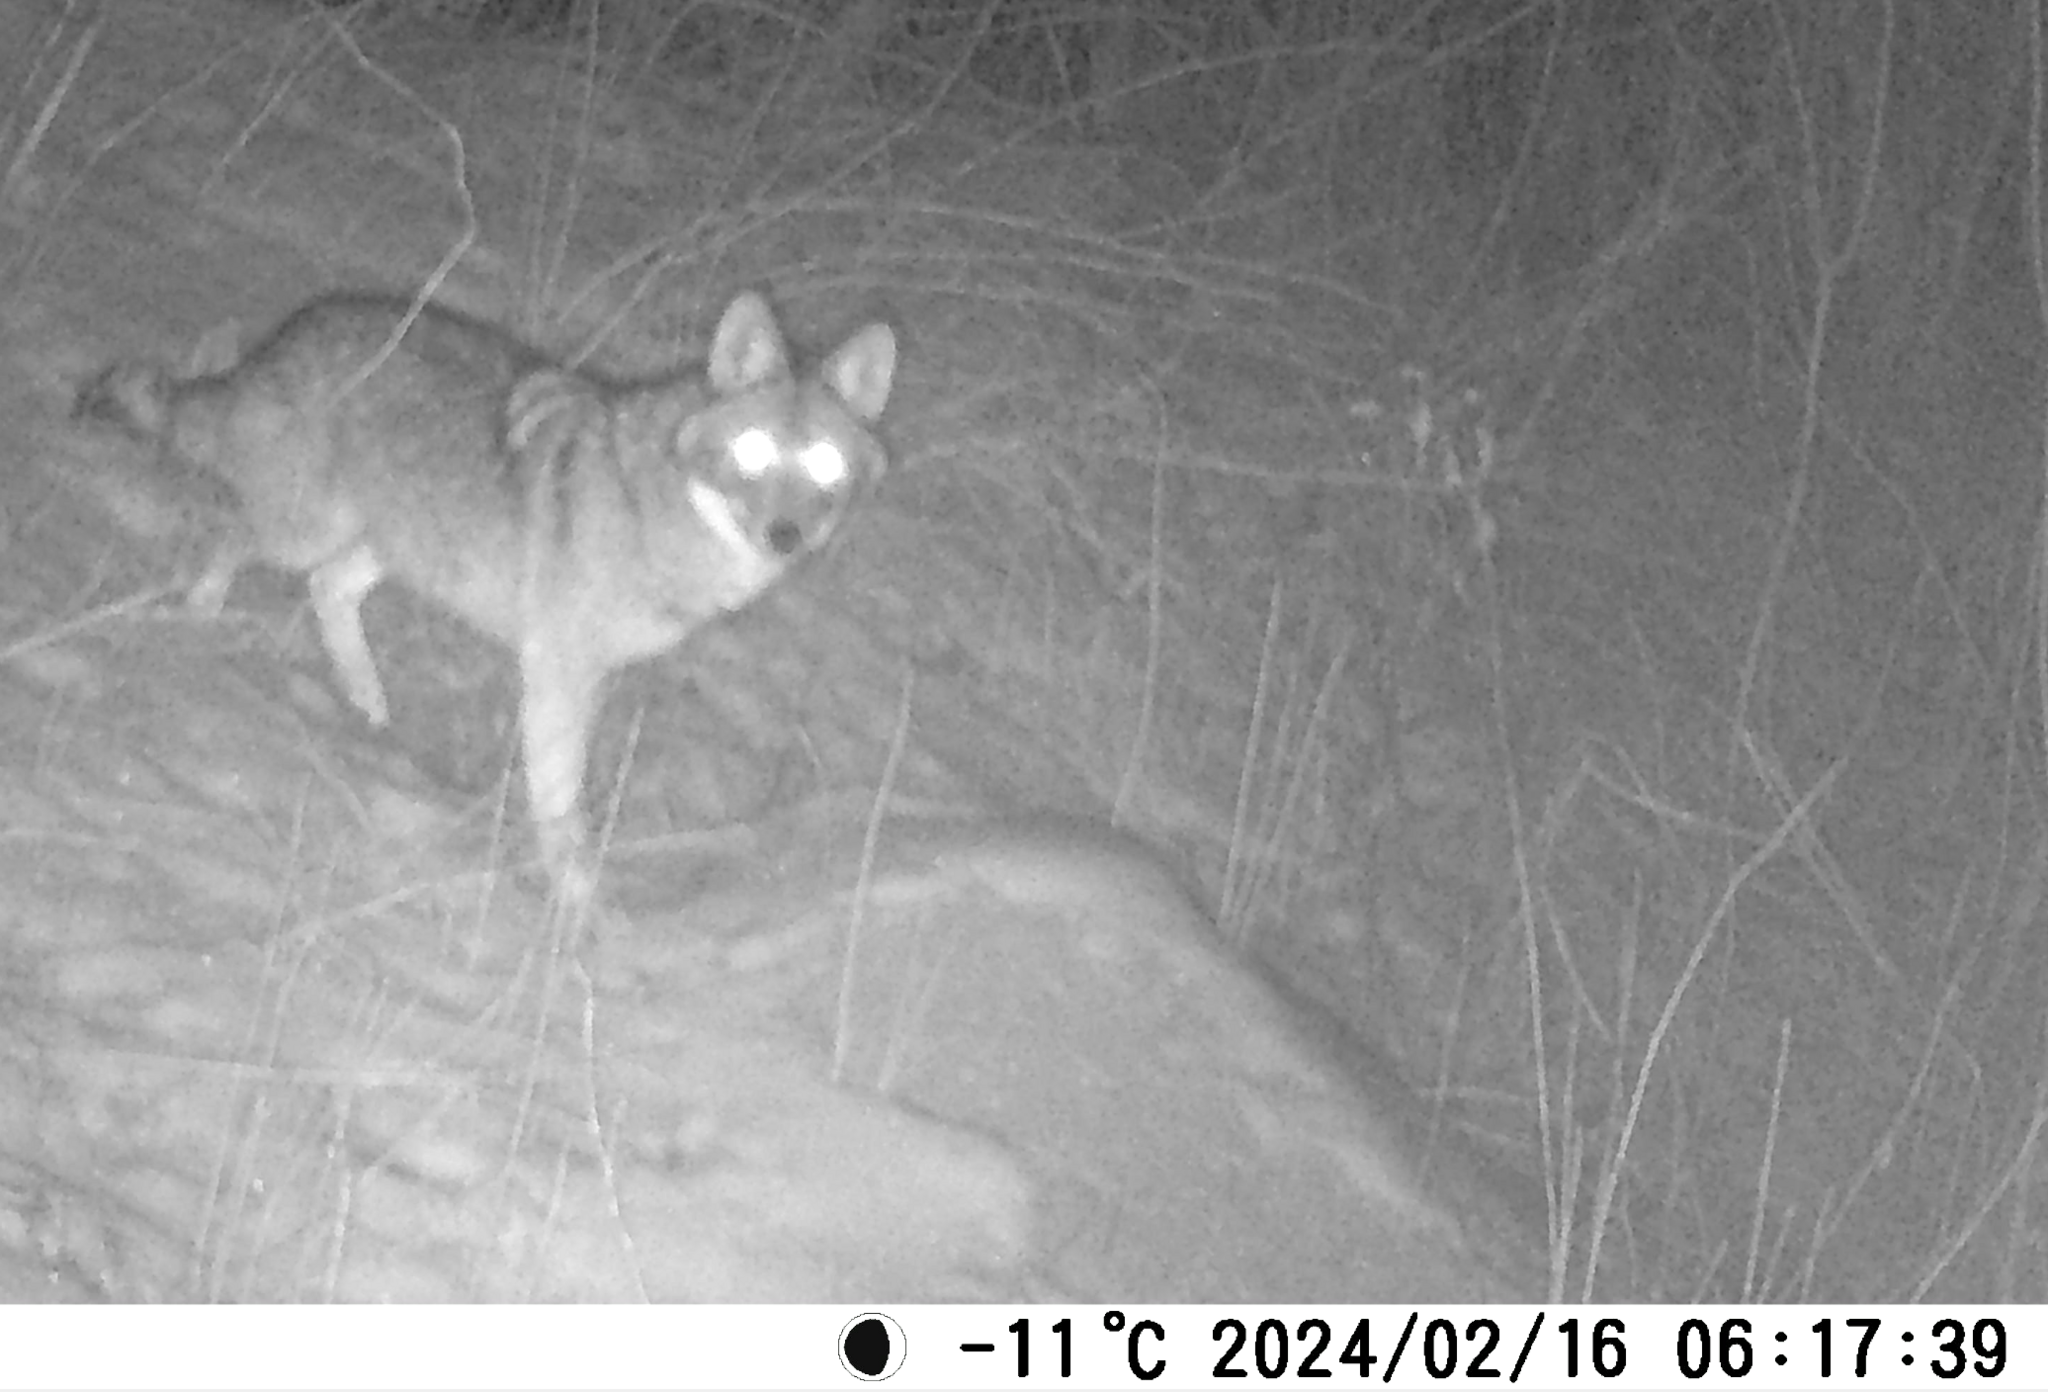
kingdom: Animalia
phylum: Chordata
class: Mammalia
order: Carnivora
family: Canidae
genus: Canis
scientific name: Canis latrans
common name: Coyote
